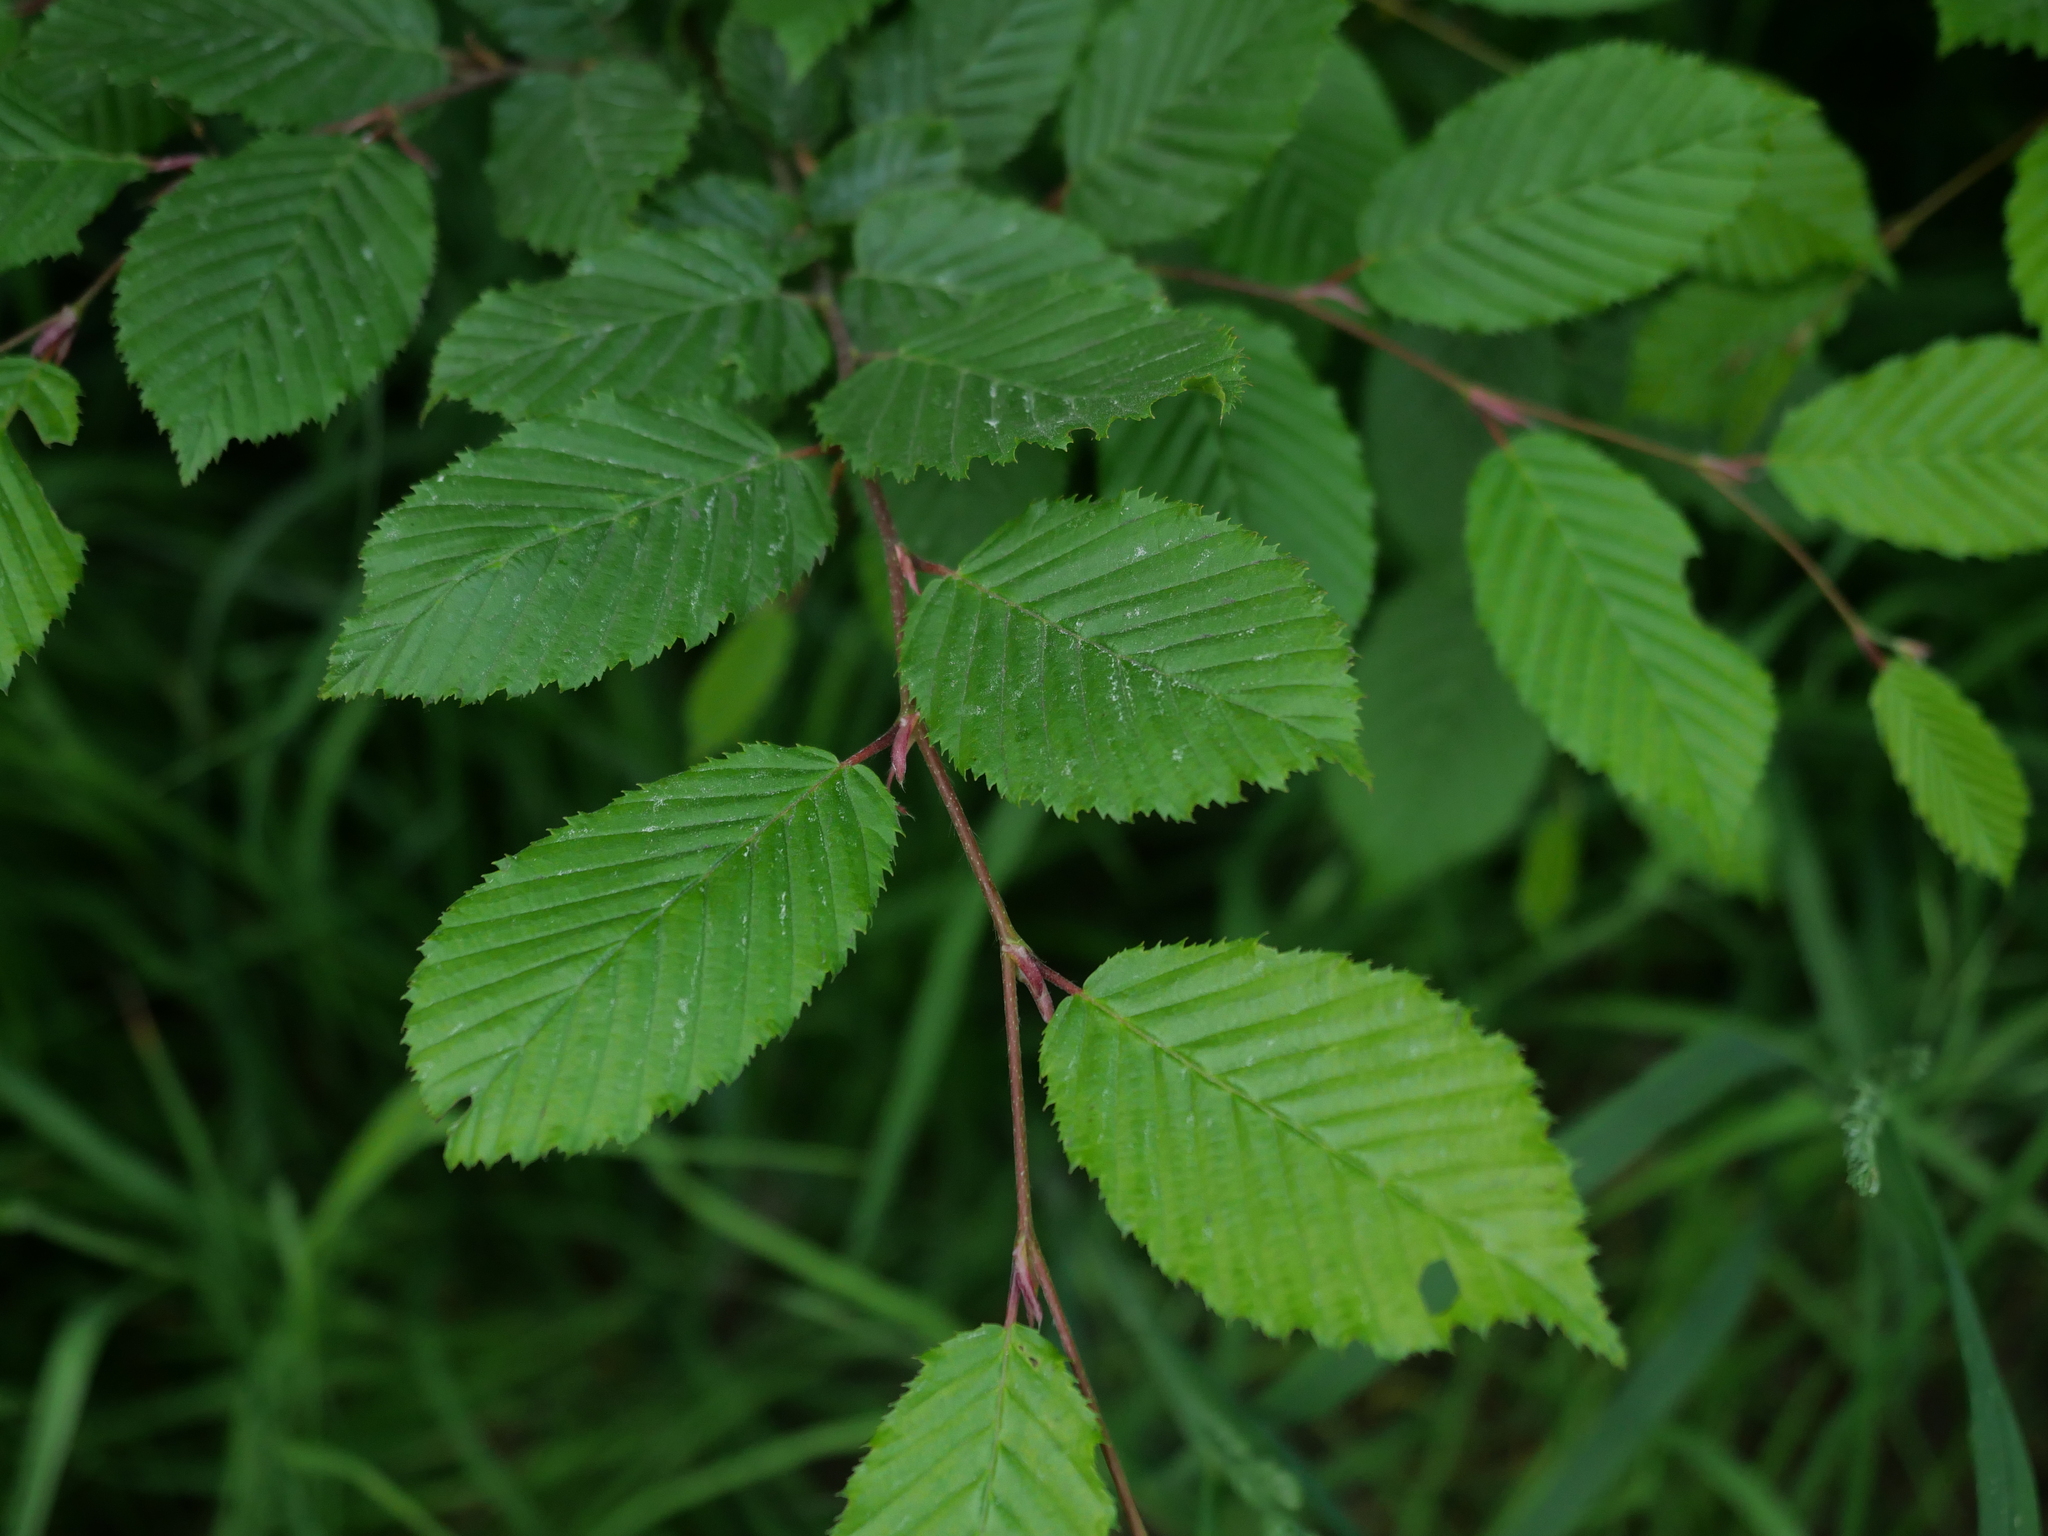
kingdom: Plantae
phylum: Tracheophyta
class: Magnoliopsida
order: Fagales
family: Betulaceae
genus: Carpinus
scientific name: Carpinus betulus
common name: Hornbeam
